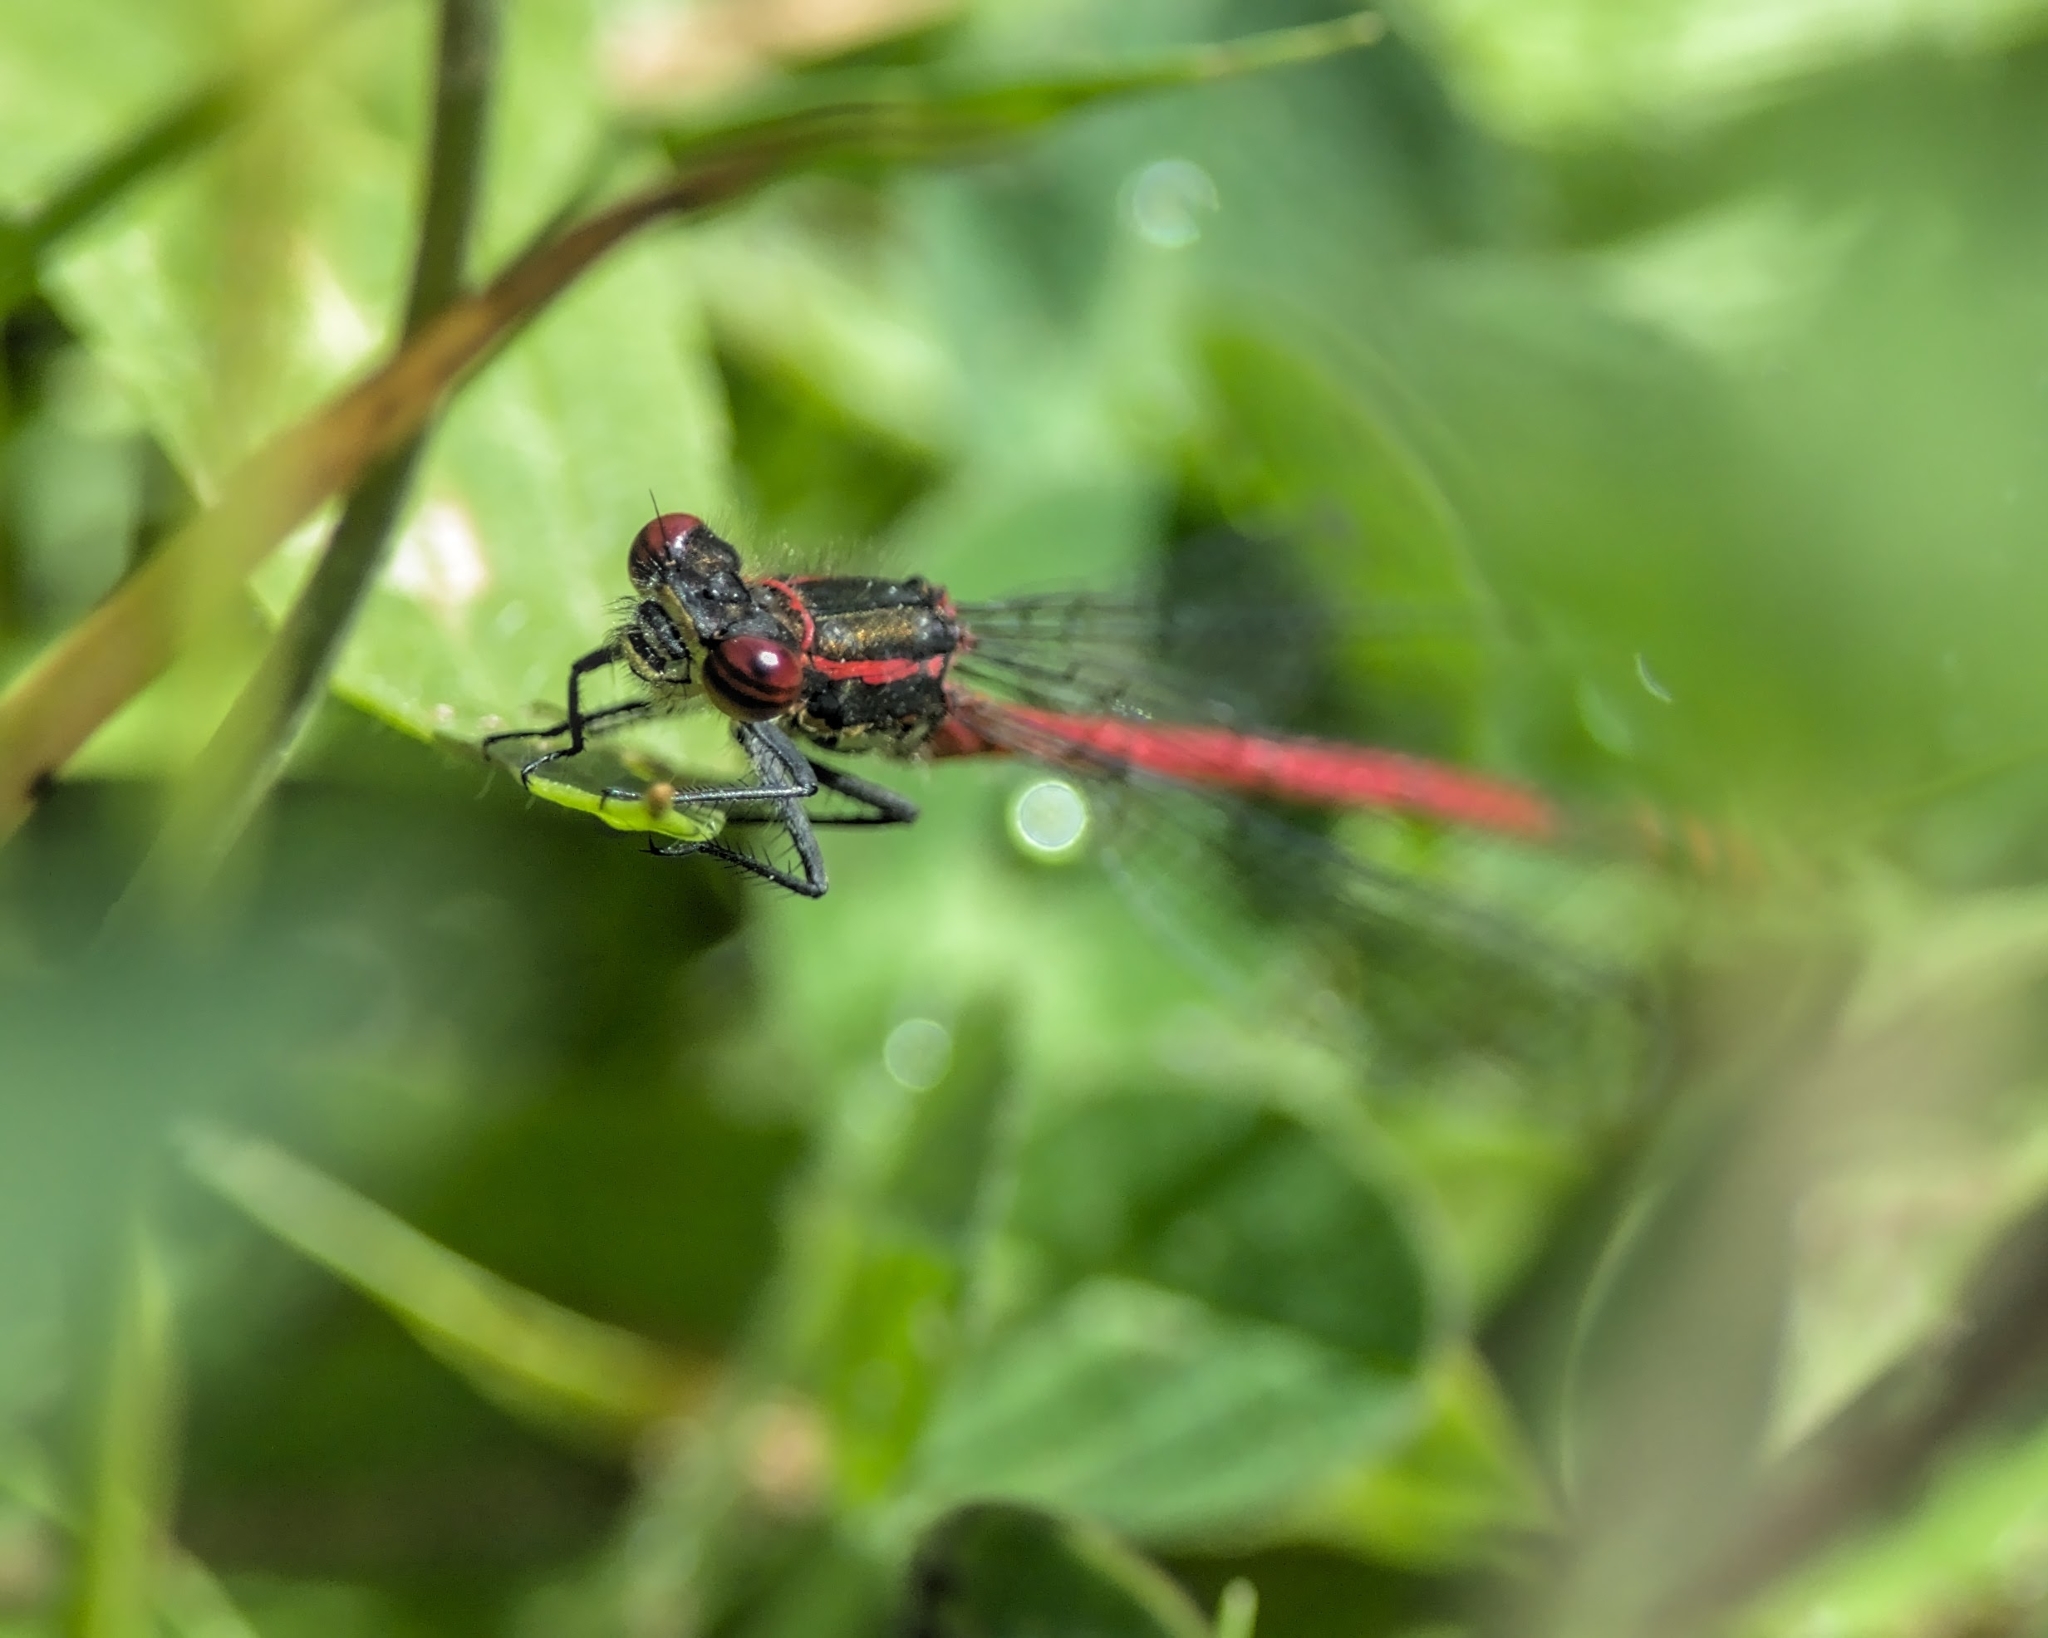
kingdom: Animalia
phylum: Arthropoda
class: Insecta
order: Odonata
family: Coenagrionidae
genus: Pyrrhosoma
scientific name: Pyrrhosoma nymphula
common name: Large red damsel
